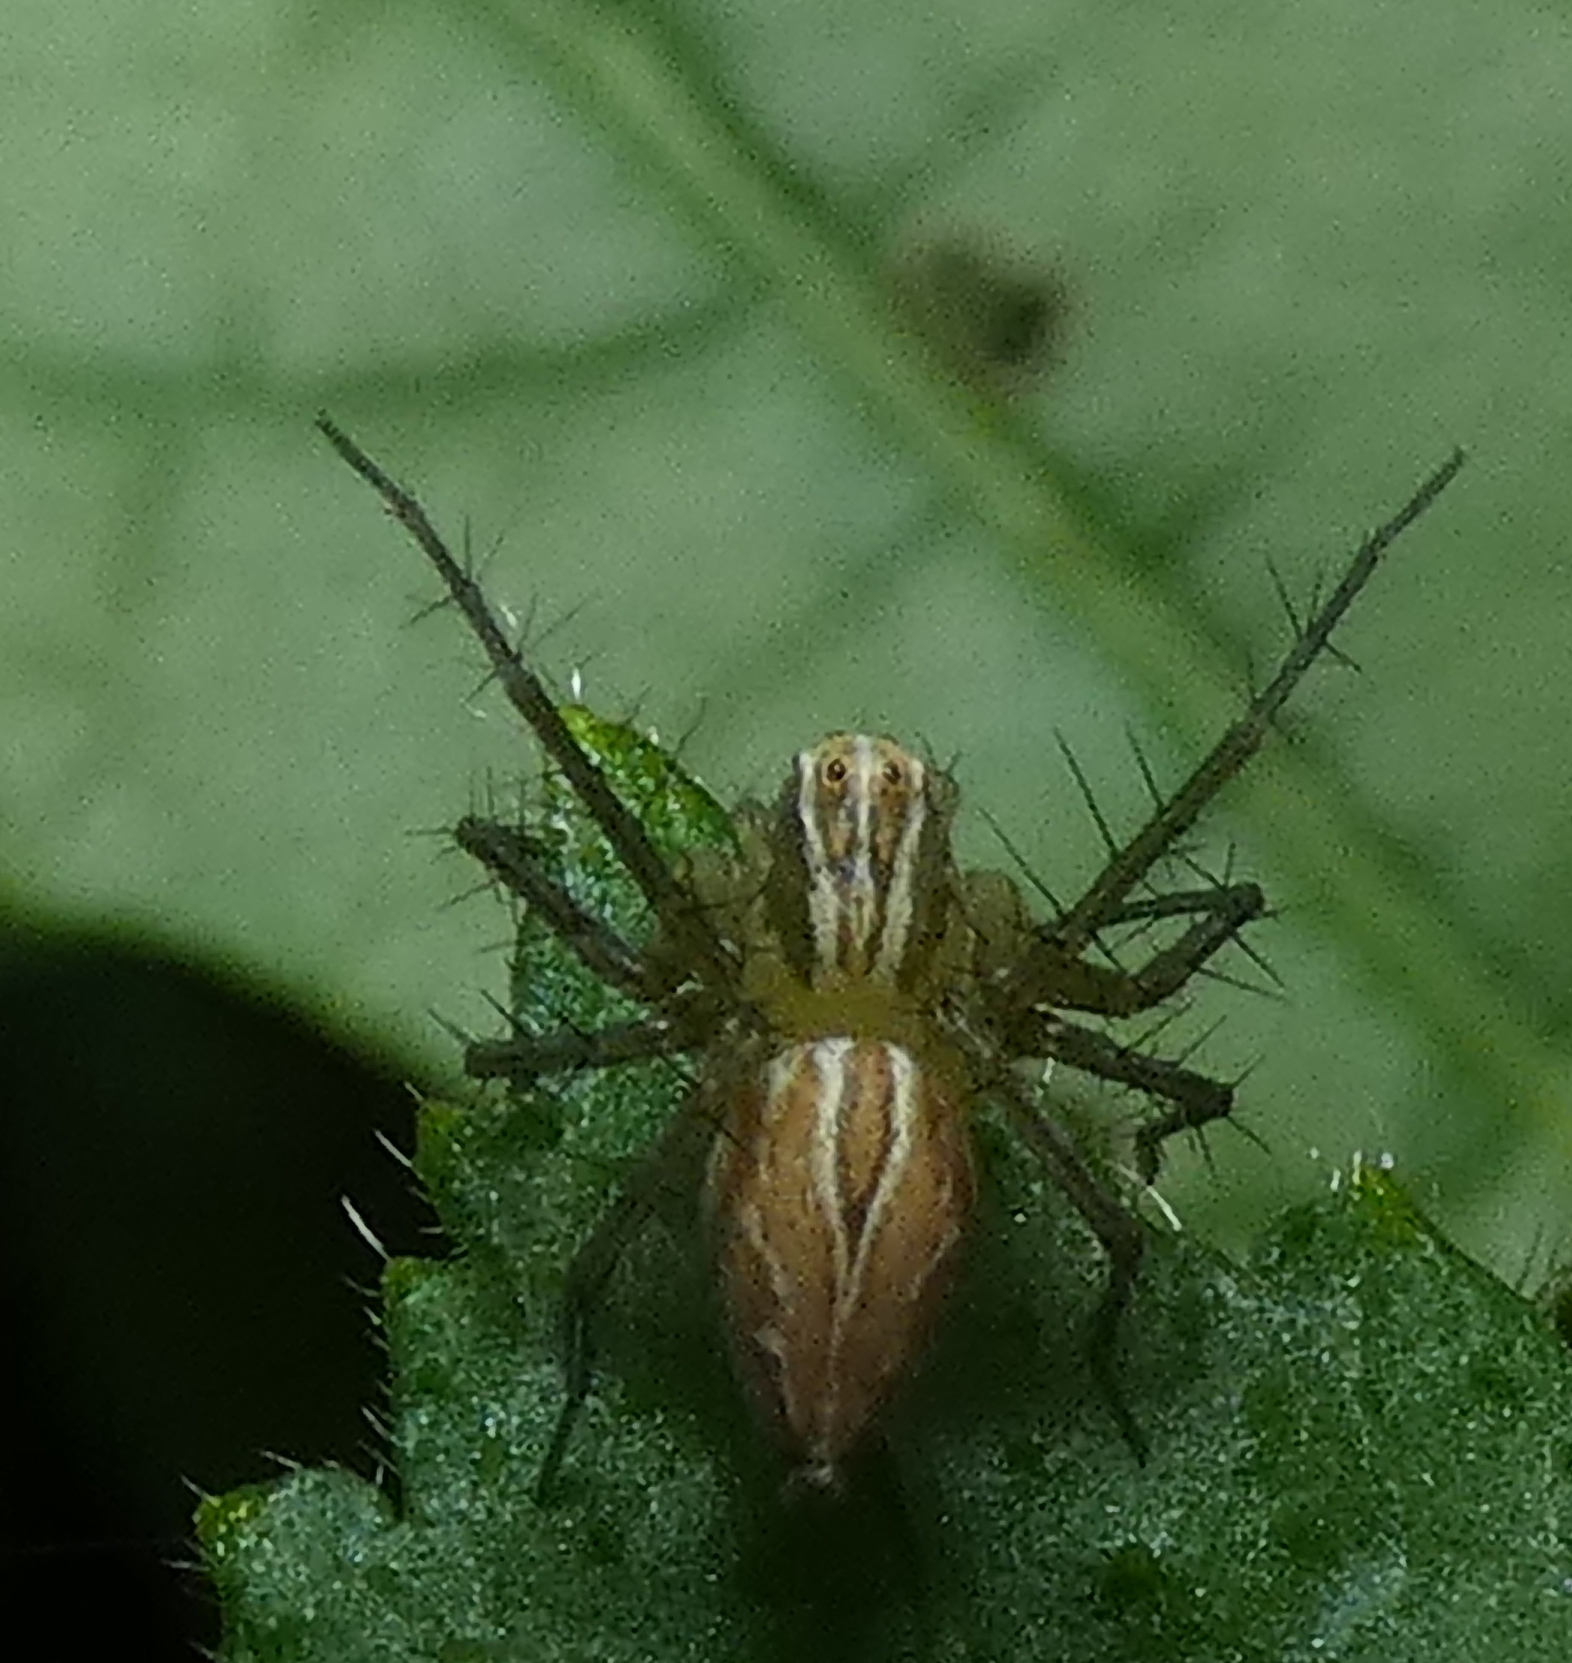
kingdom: Animalia
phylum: Arthropoda
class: Arachnida
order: Araneae
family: Oxyopidae
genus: Oxyopes
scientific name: Oxyopes salticus
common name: Lynx spiders
